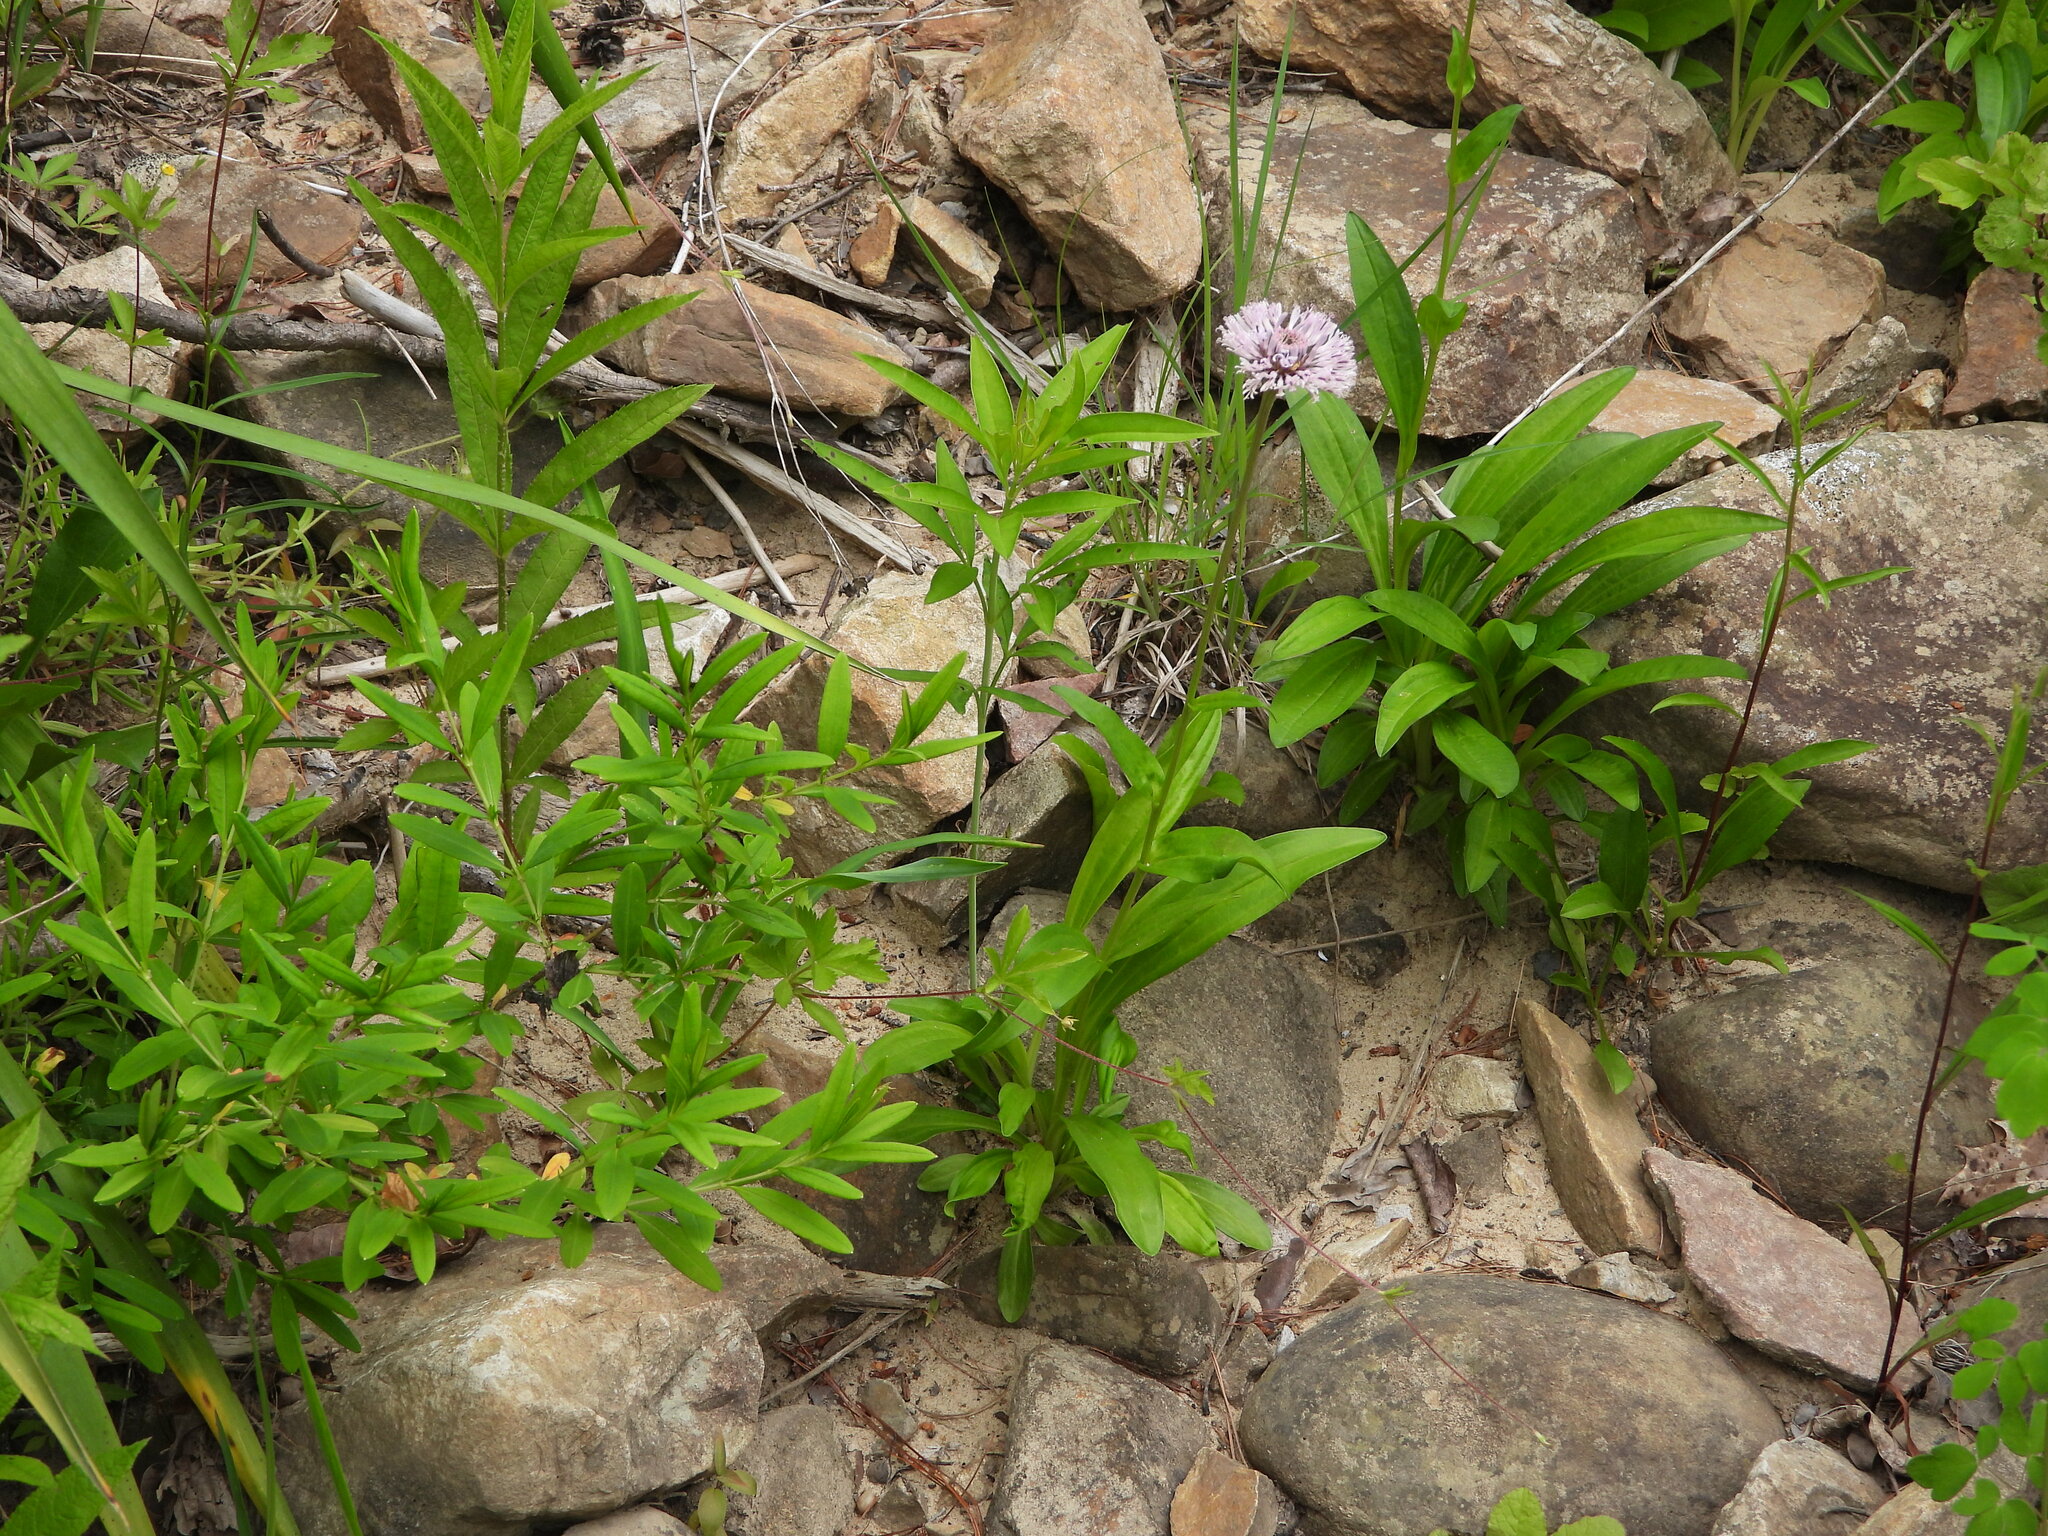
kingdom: Plantae
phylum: Tracheophyta
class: Magnoliopsida
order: Asterales
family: Asteraceae
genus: Marshallia
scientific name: Marshallia pulchra
